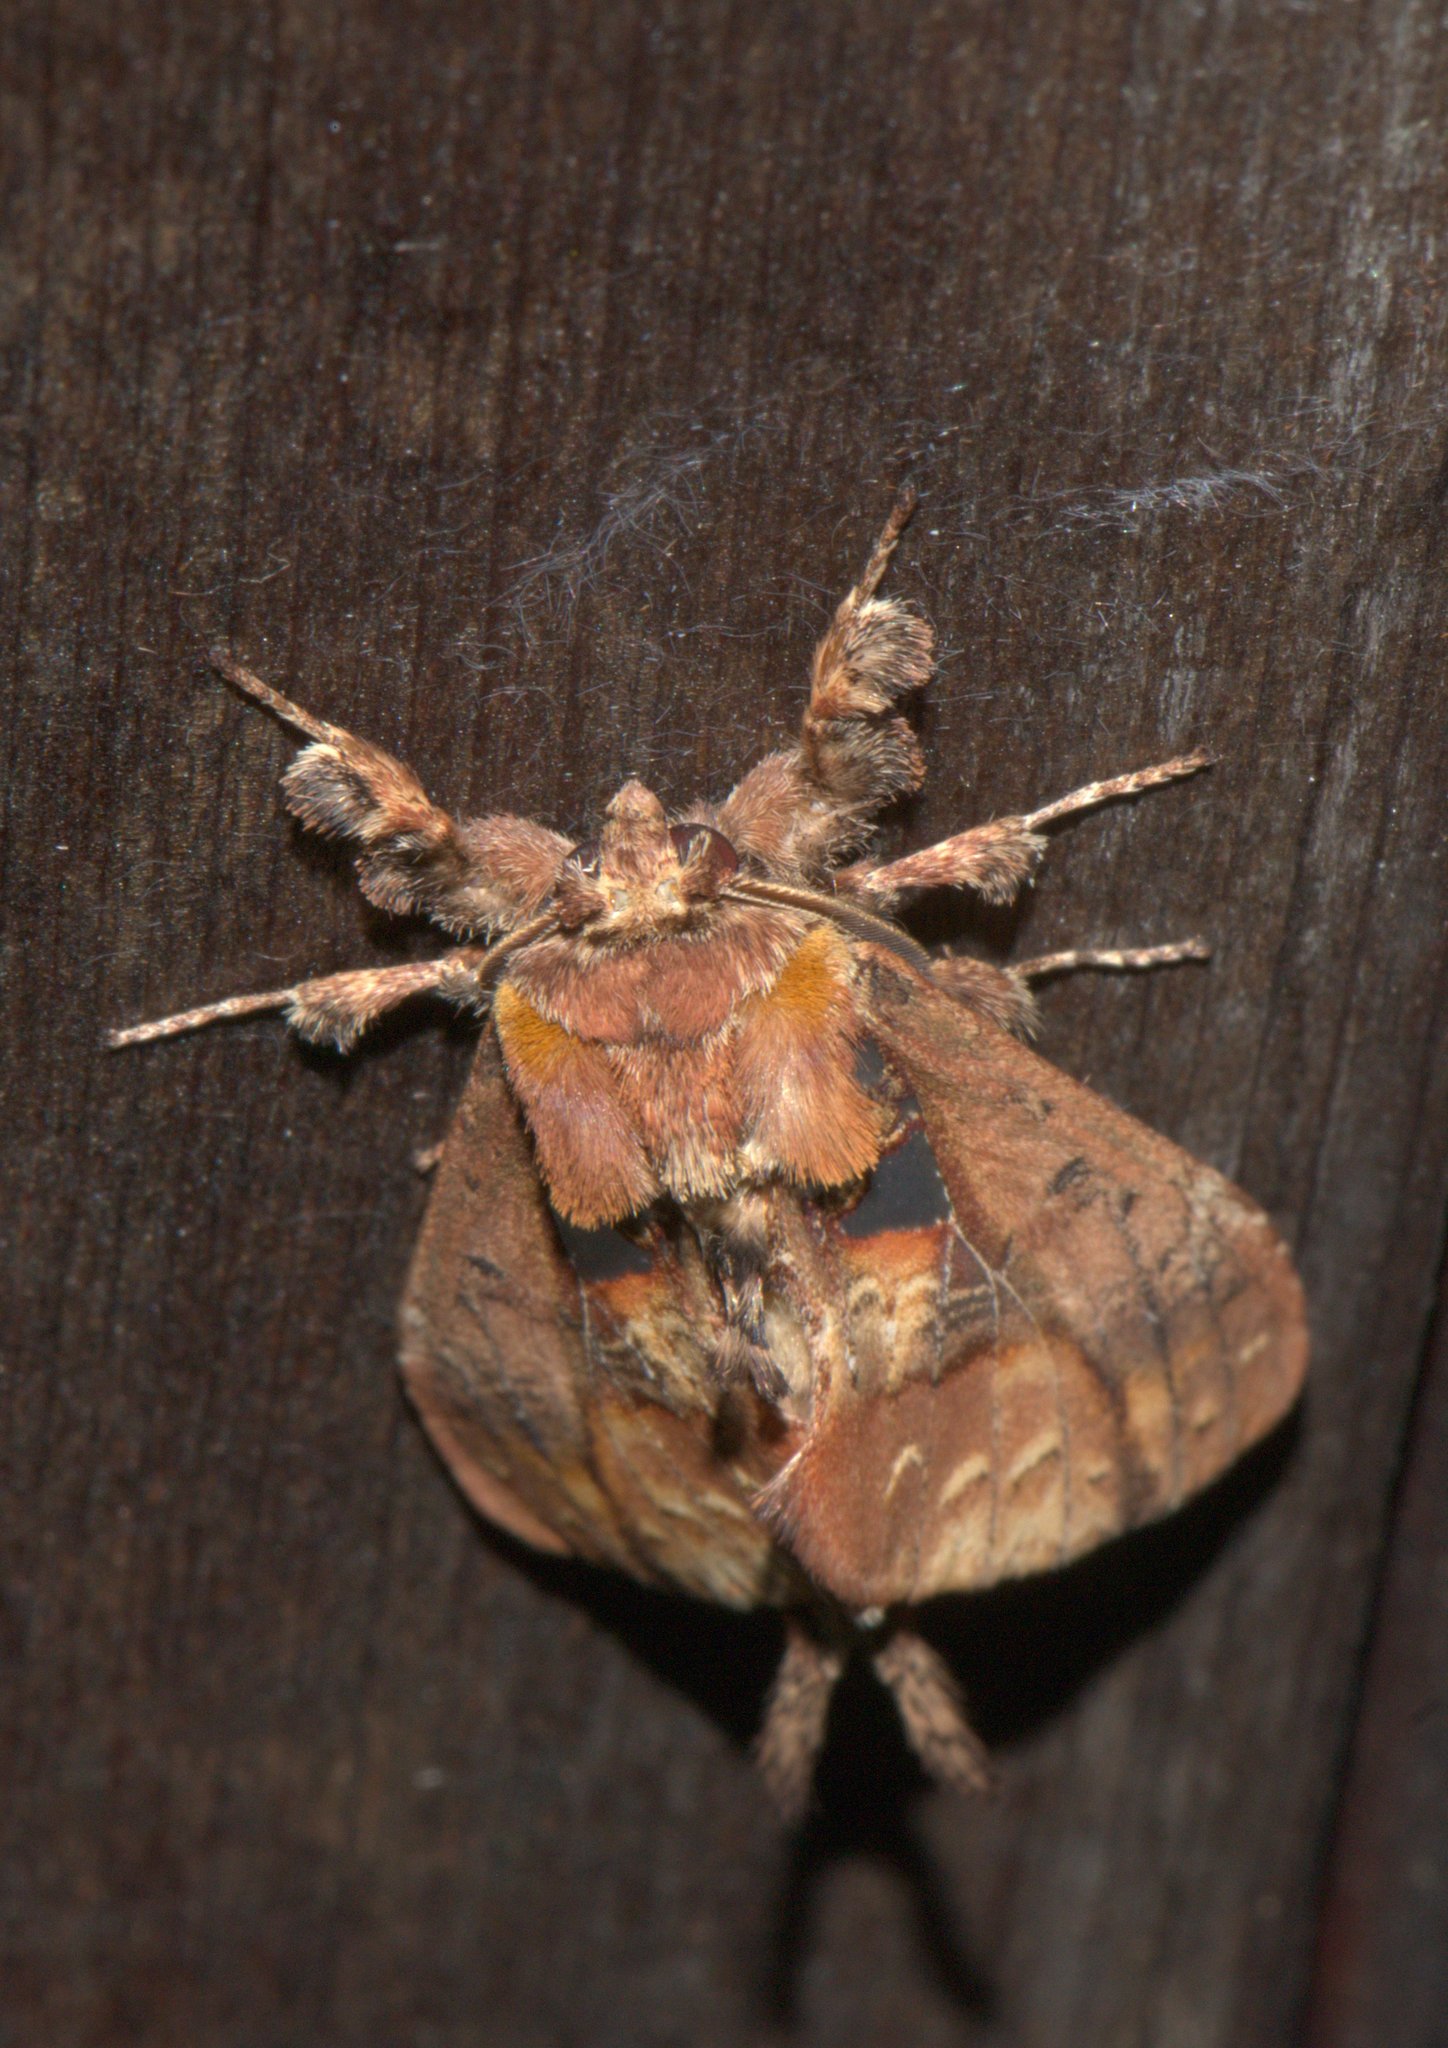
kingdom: Animalia
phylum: Arthropoda
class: Insecta
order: Lepidoptera
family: Notodontidae
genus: Ginshachia
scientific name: Ginshachia gemmifera
